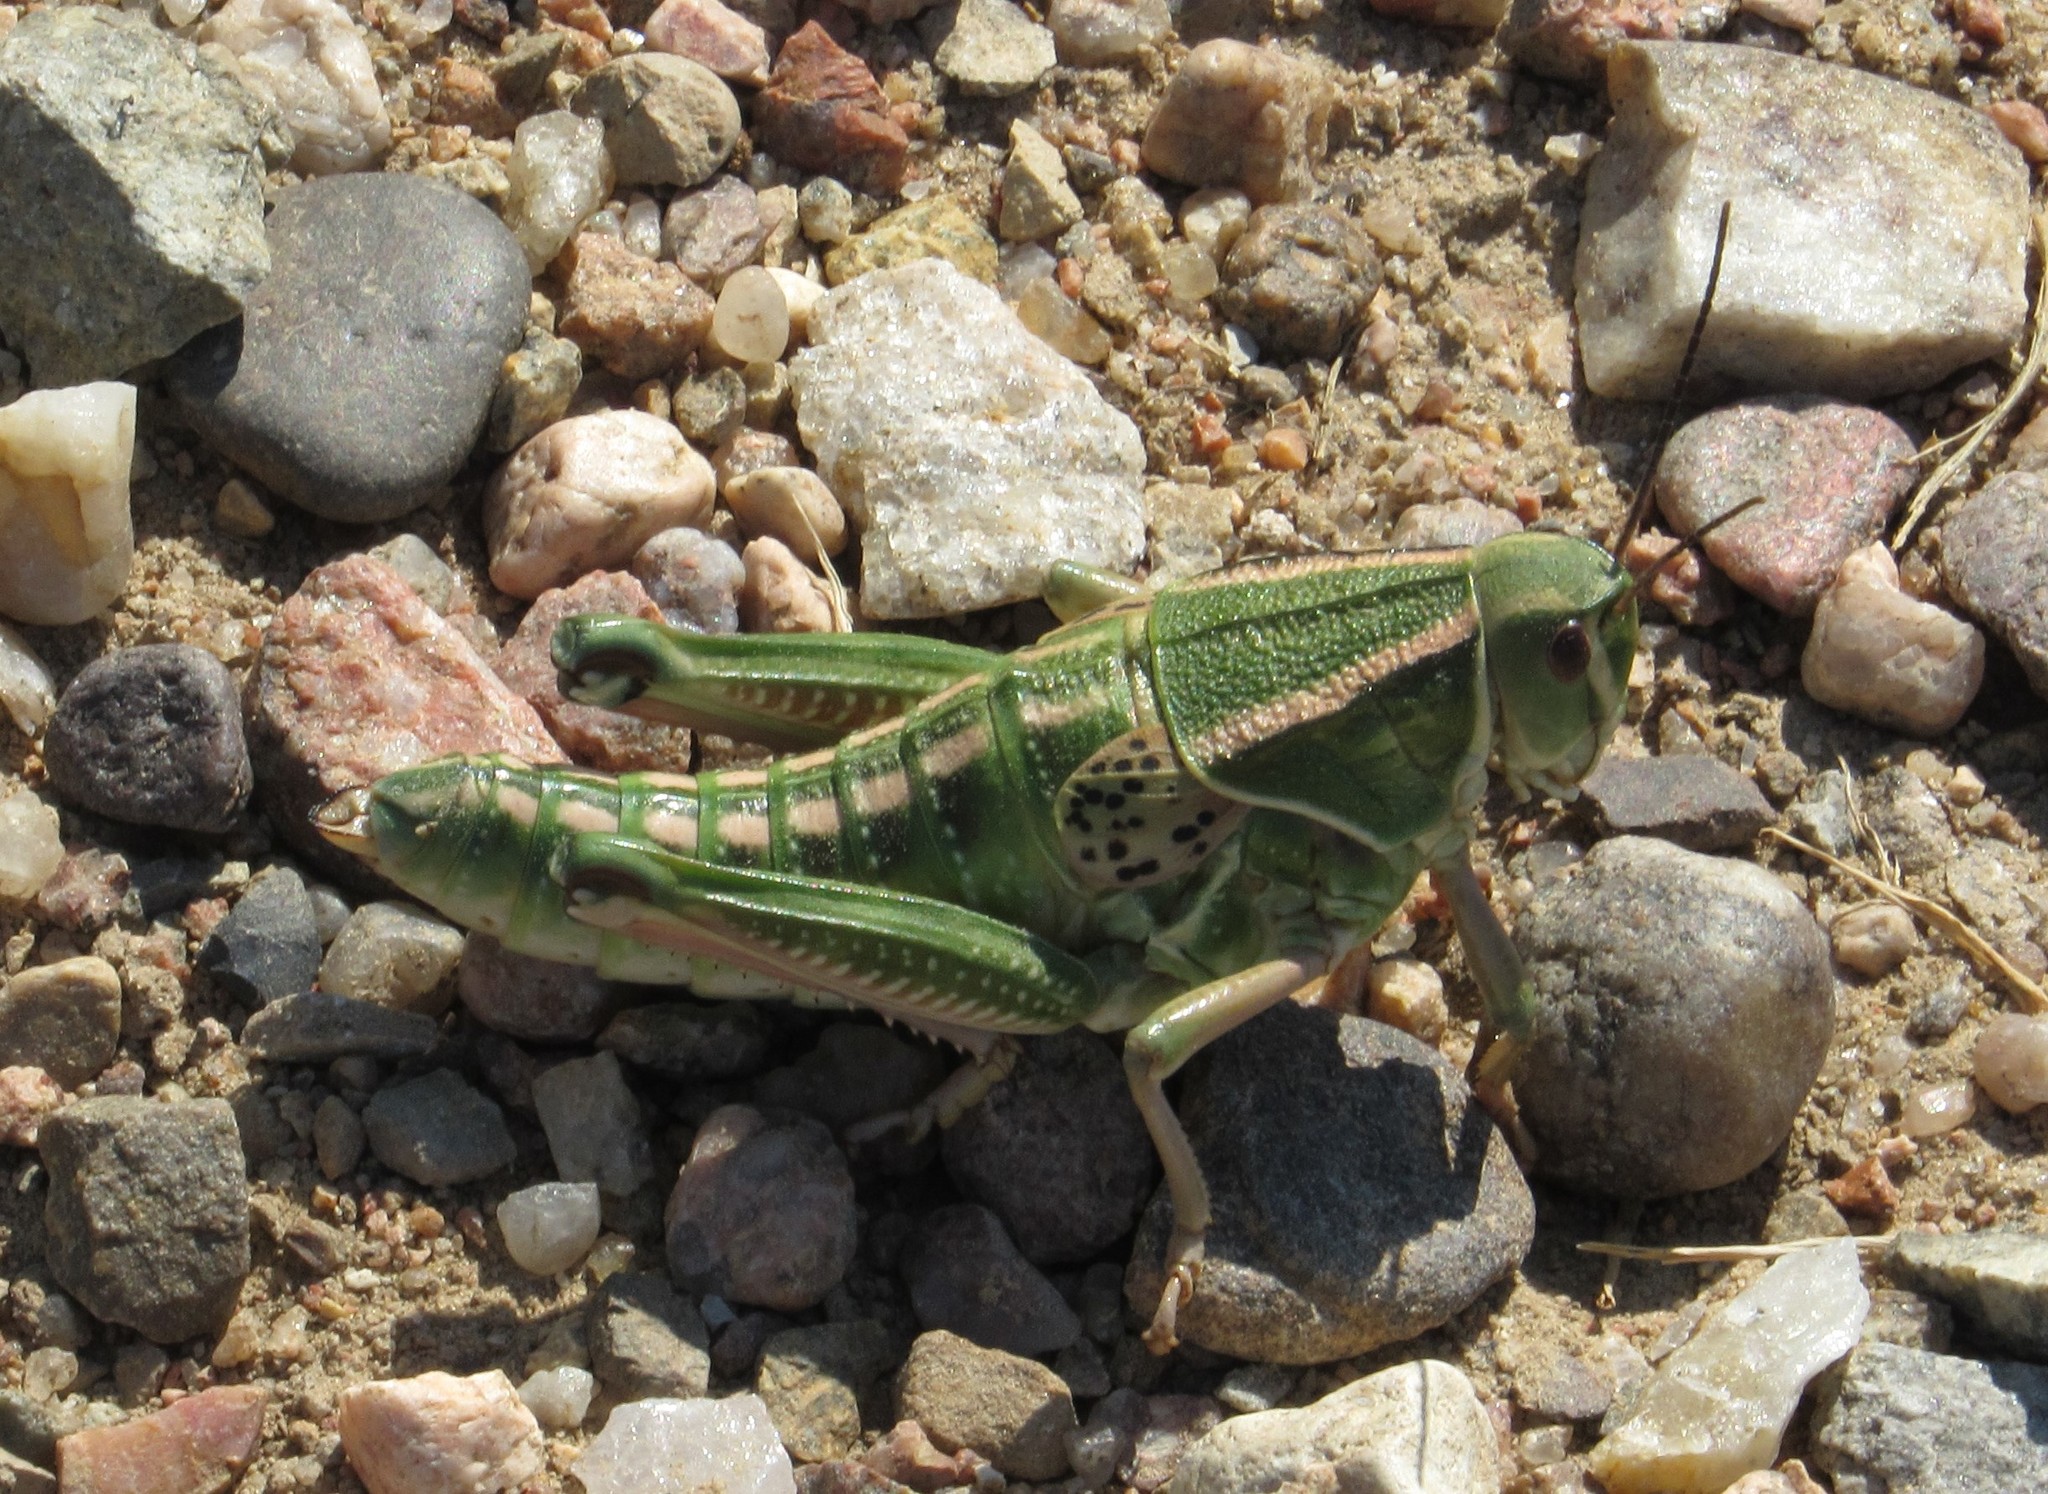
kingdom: Animalia
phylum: Arthropoda
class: Insecta
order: Orthoptera
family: Romaleidae
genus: Brachystola
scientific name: Brachystola magna
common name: Plains lubber grasshopper
